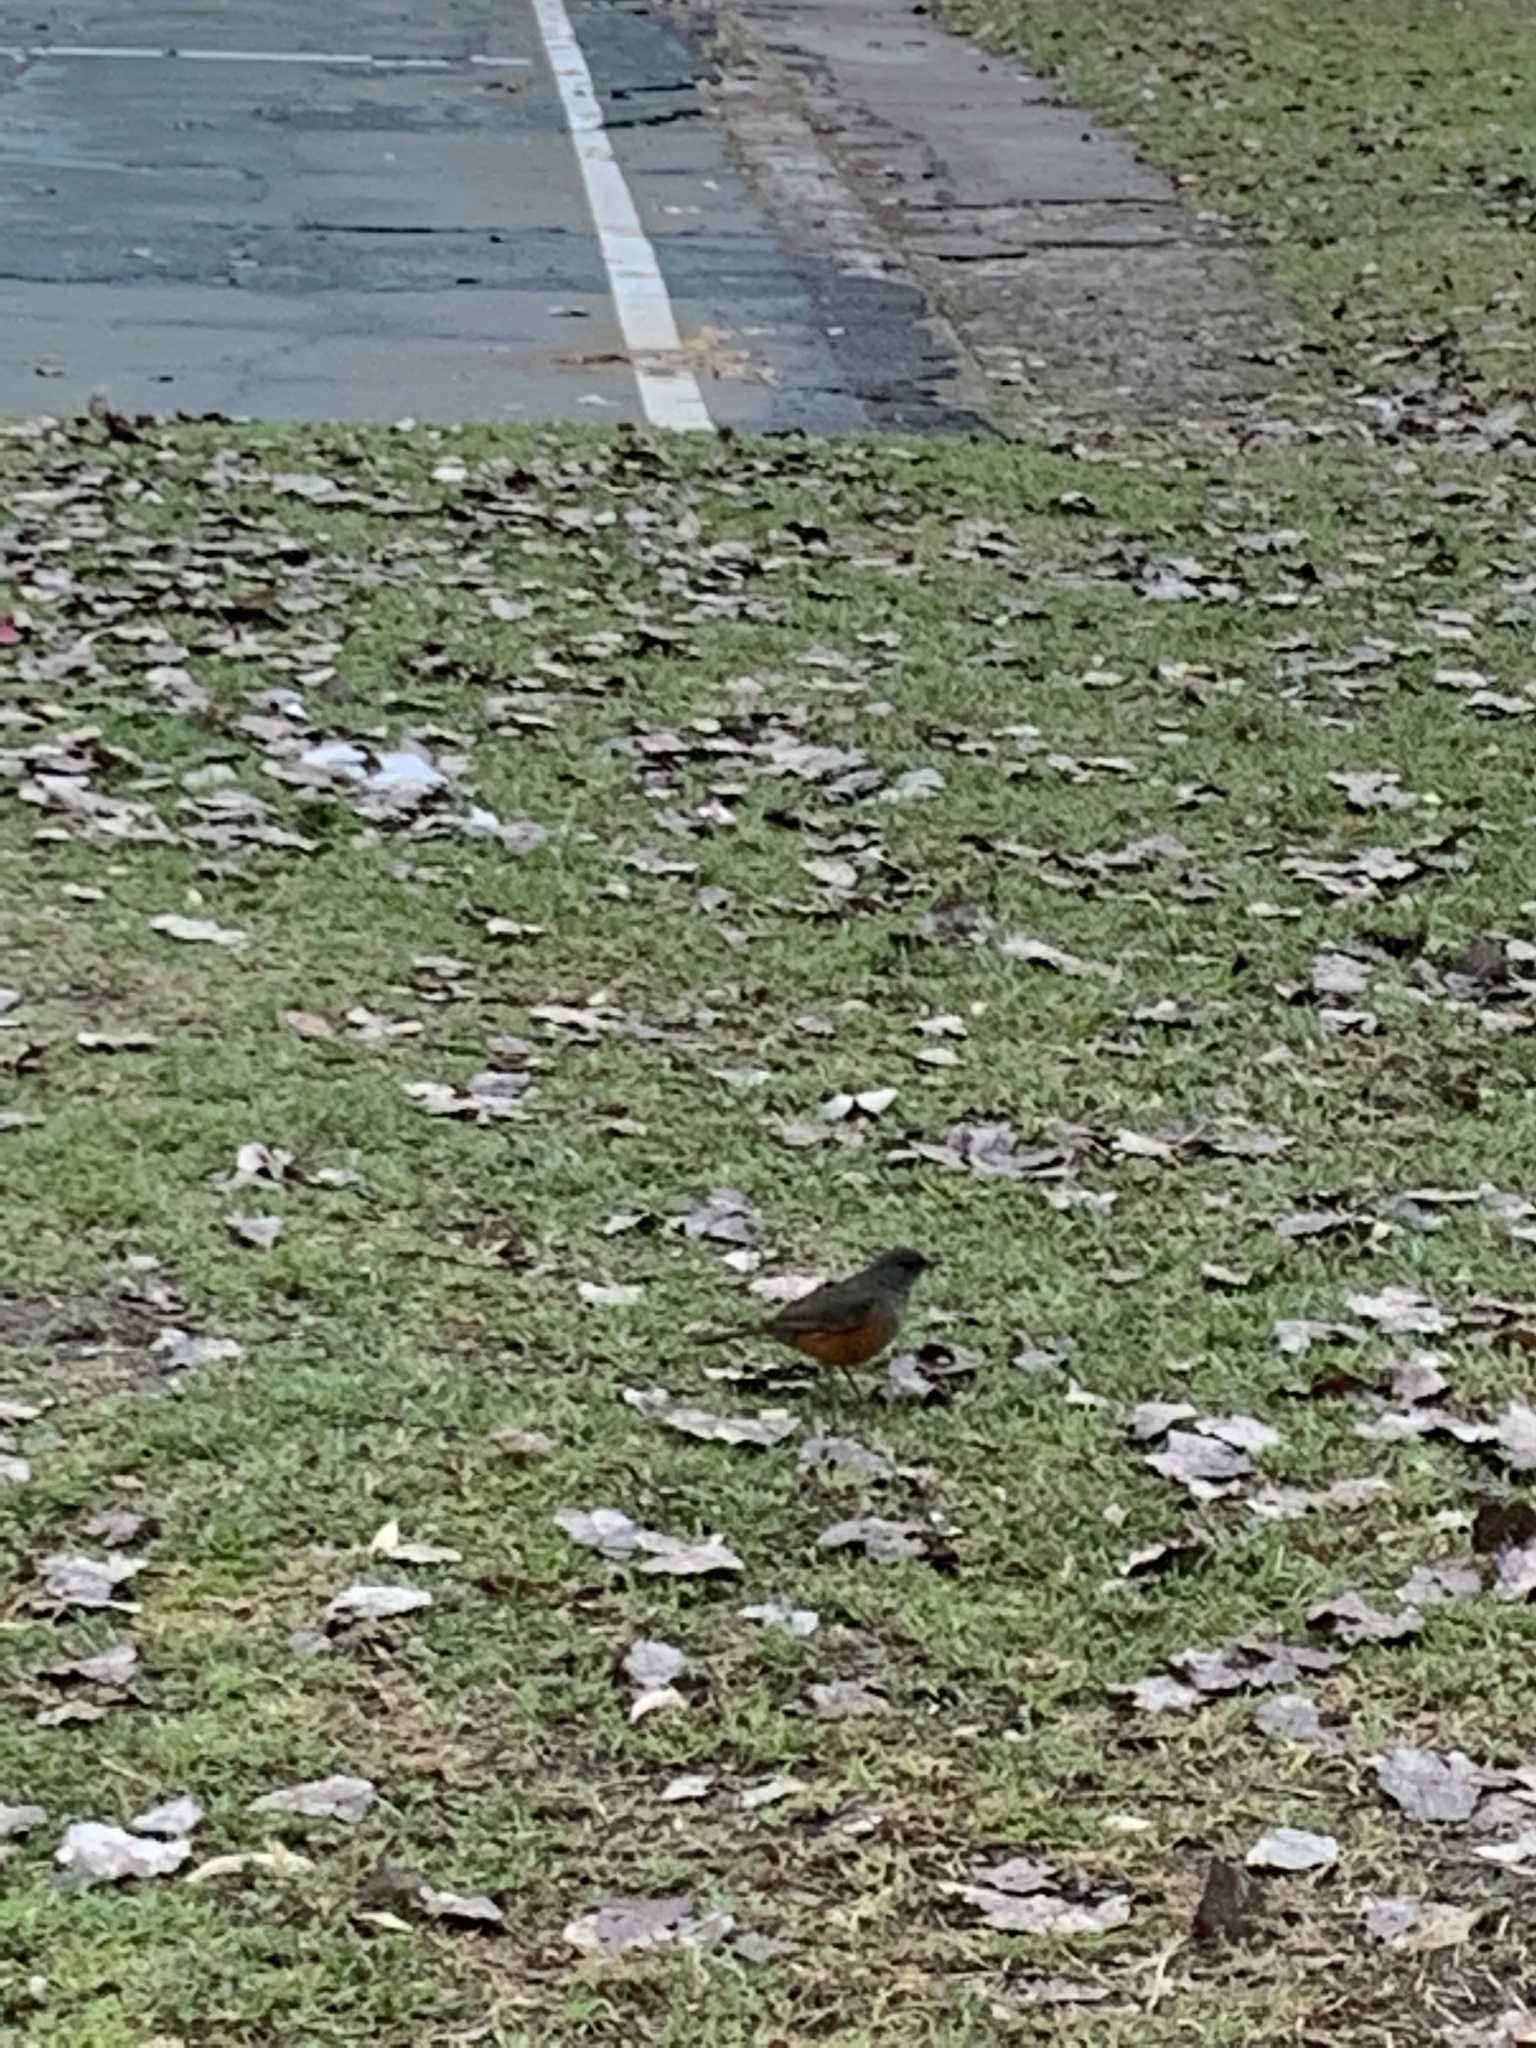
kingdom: Animalia
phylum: Chordata
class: Aves
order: Passeriformes
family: Turdidae
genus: Turdus
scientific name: Turdus rufiventris
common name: Rufous-bellied thrush
